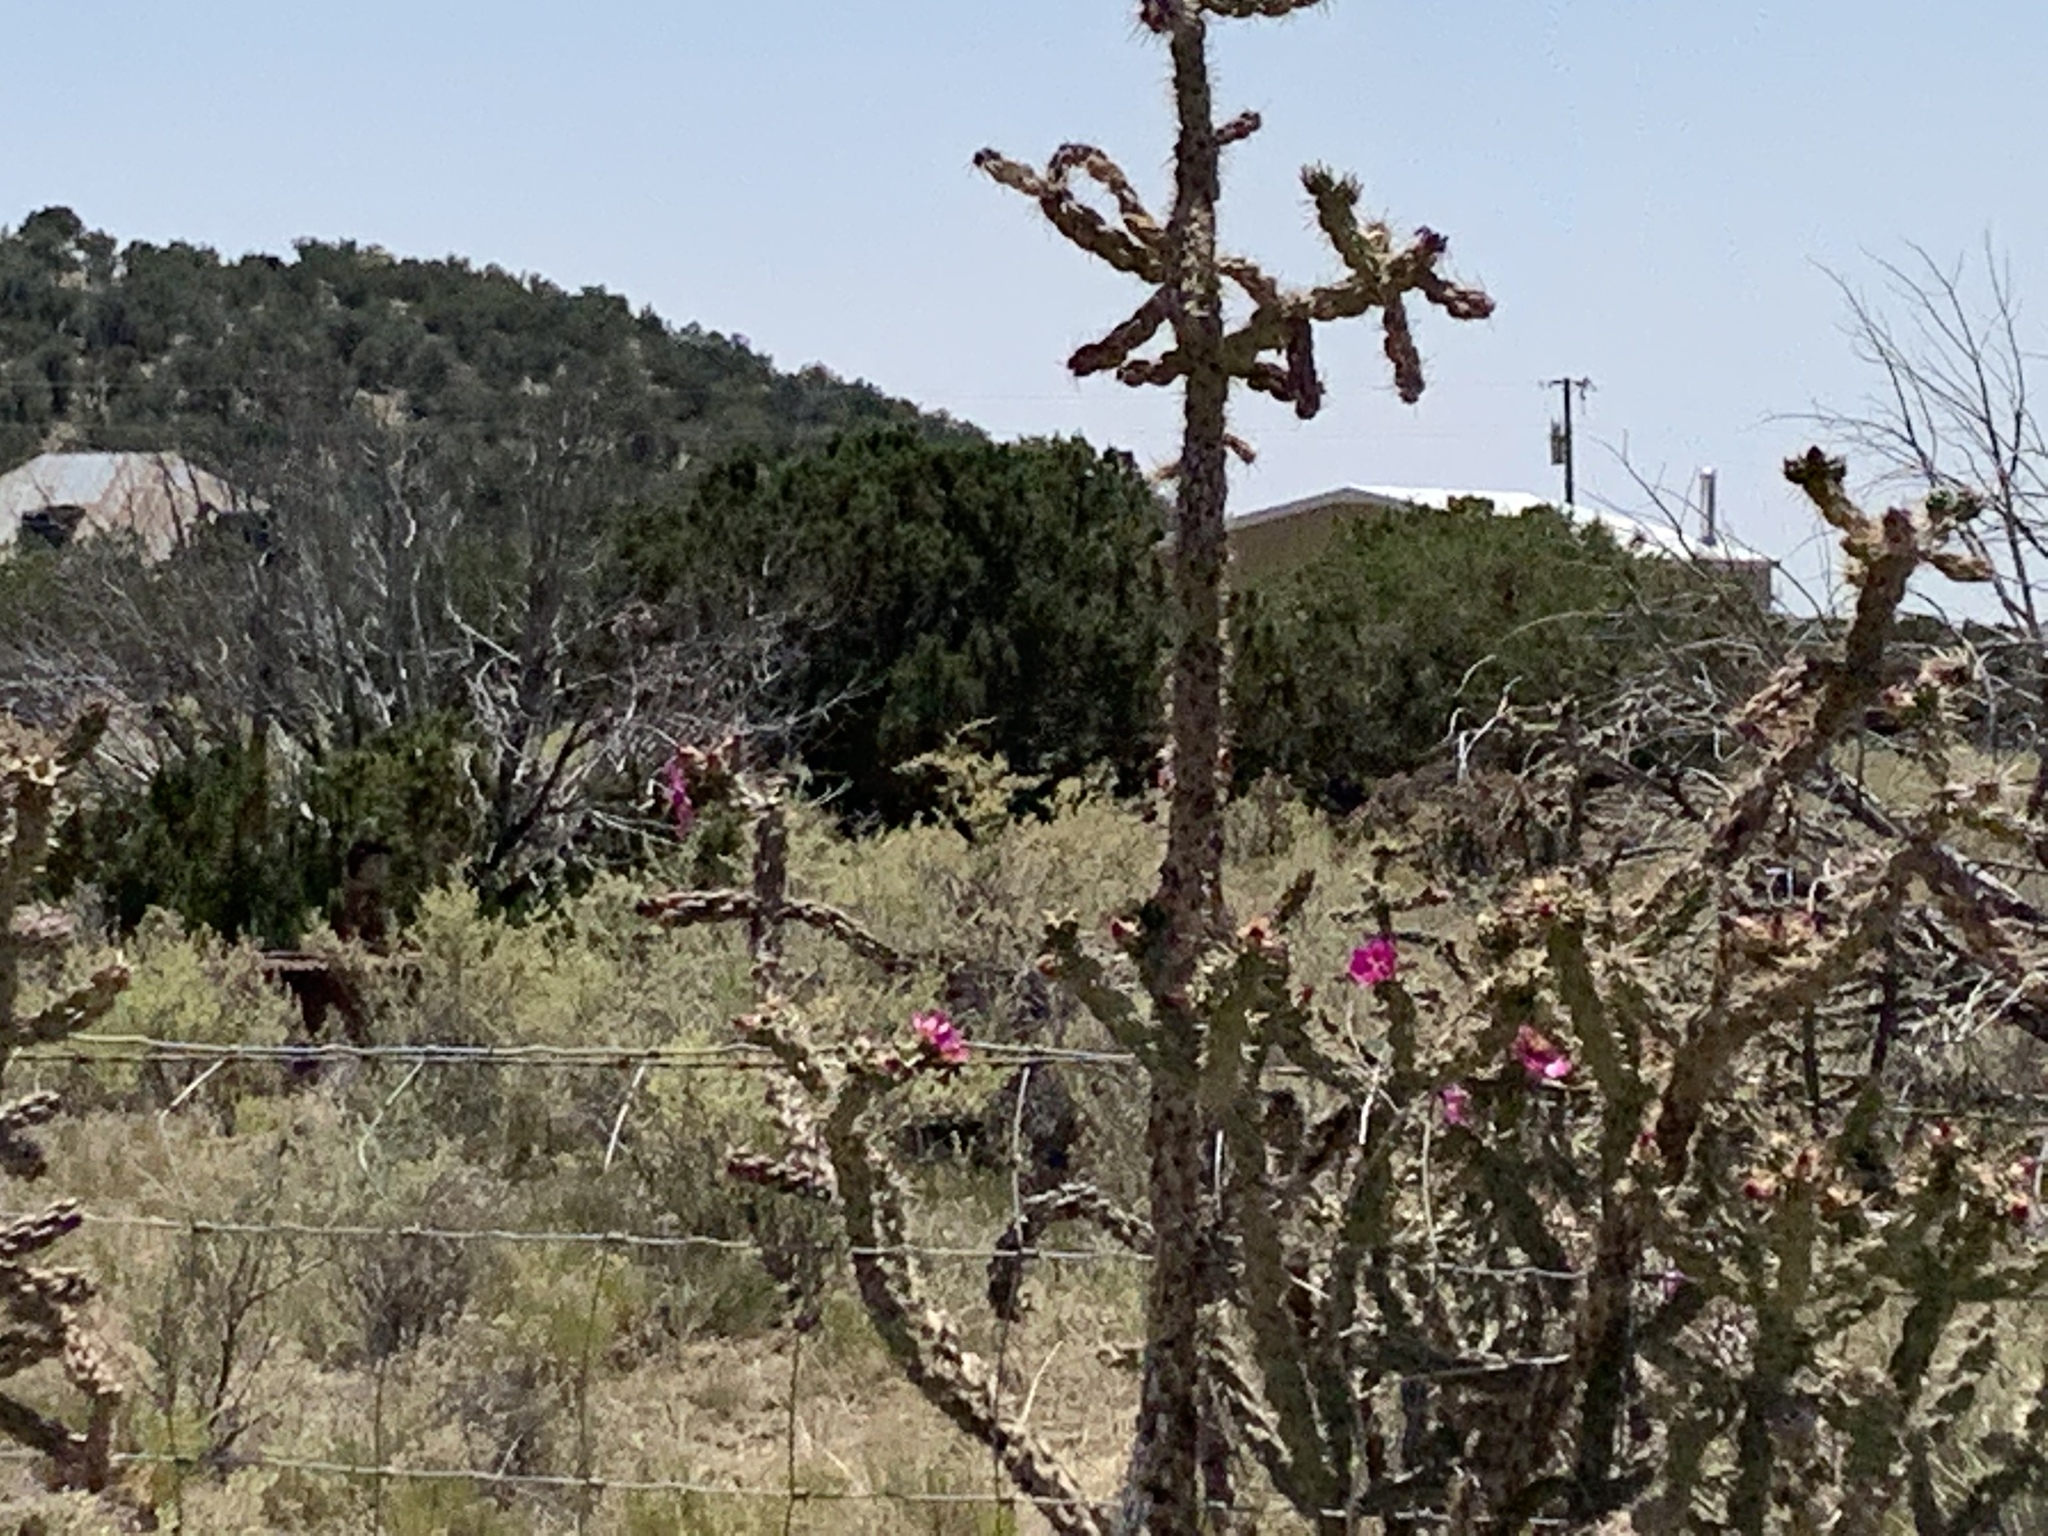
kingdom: Plantae
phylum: Tracheophyta
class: Magnoliopsida
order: Caryophyllales
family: Cactaceae
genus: Cylindropuntia
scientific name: Cylindropuntia imbricata
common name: Candelabrum cactus
